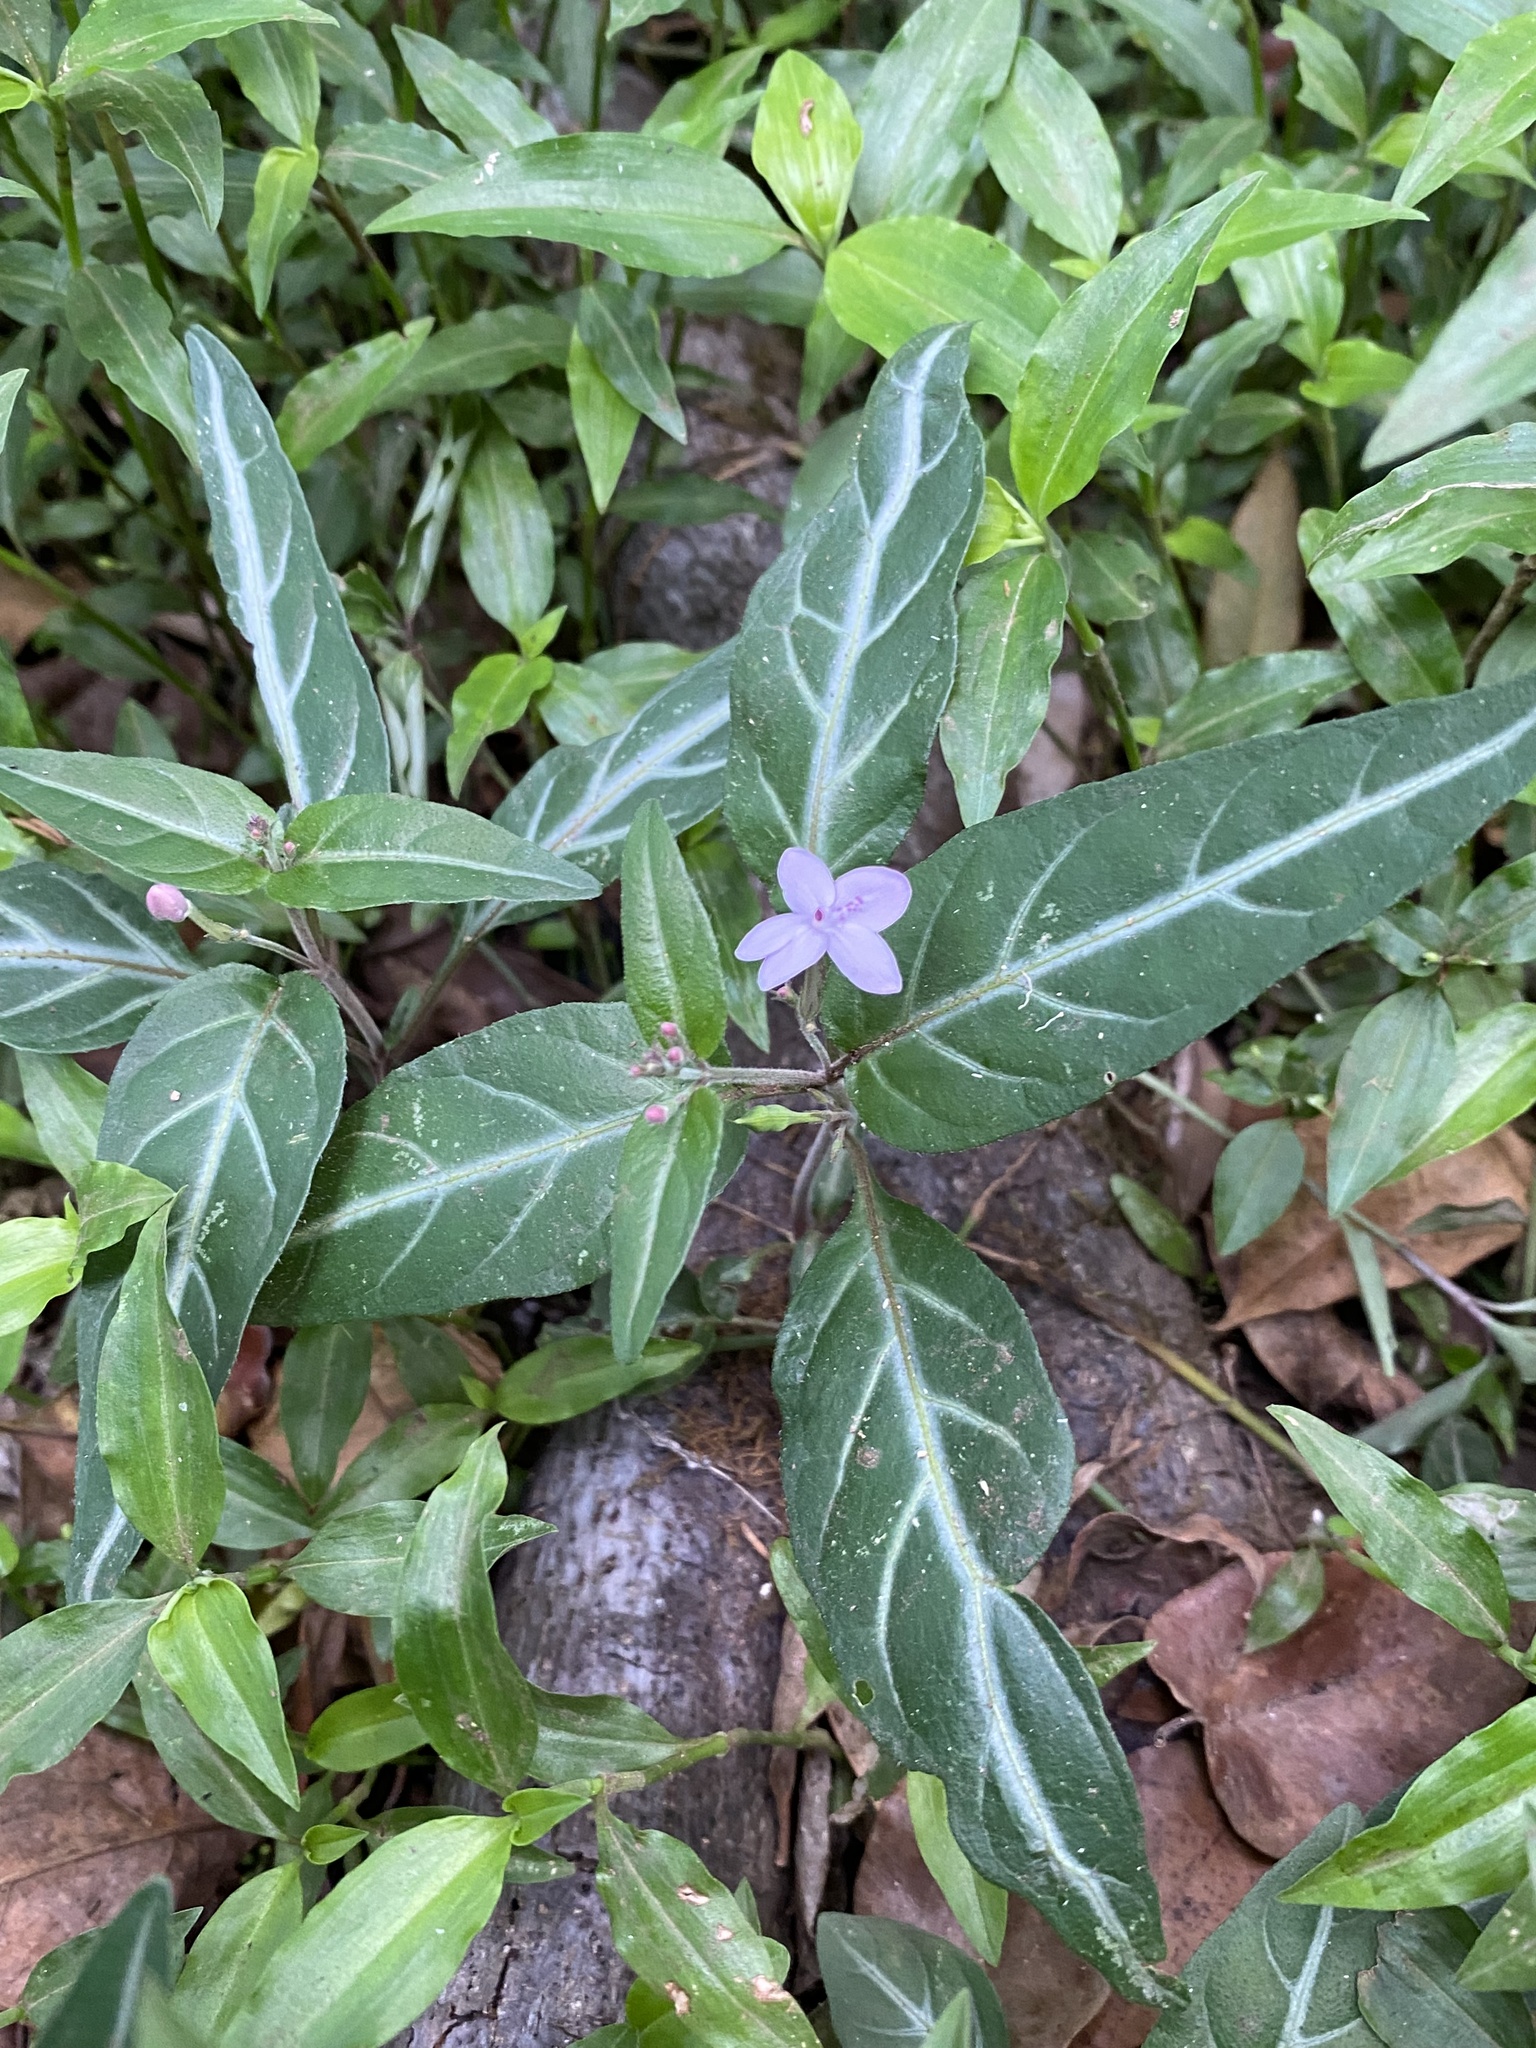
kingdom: Plantae
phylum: Tracheophyta
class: Magnoliopsida
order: Lamiales
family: Acanthaceae
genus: Pseuderanthemum
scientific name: Pseuderanthemum variabile
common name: Night and afternoon
